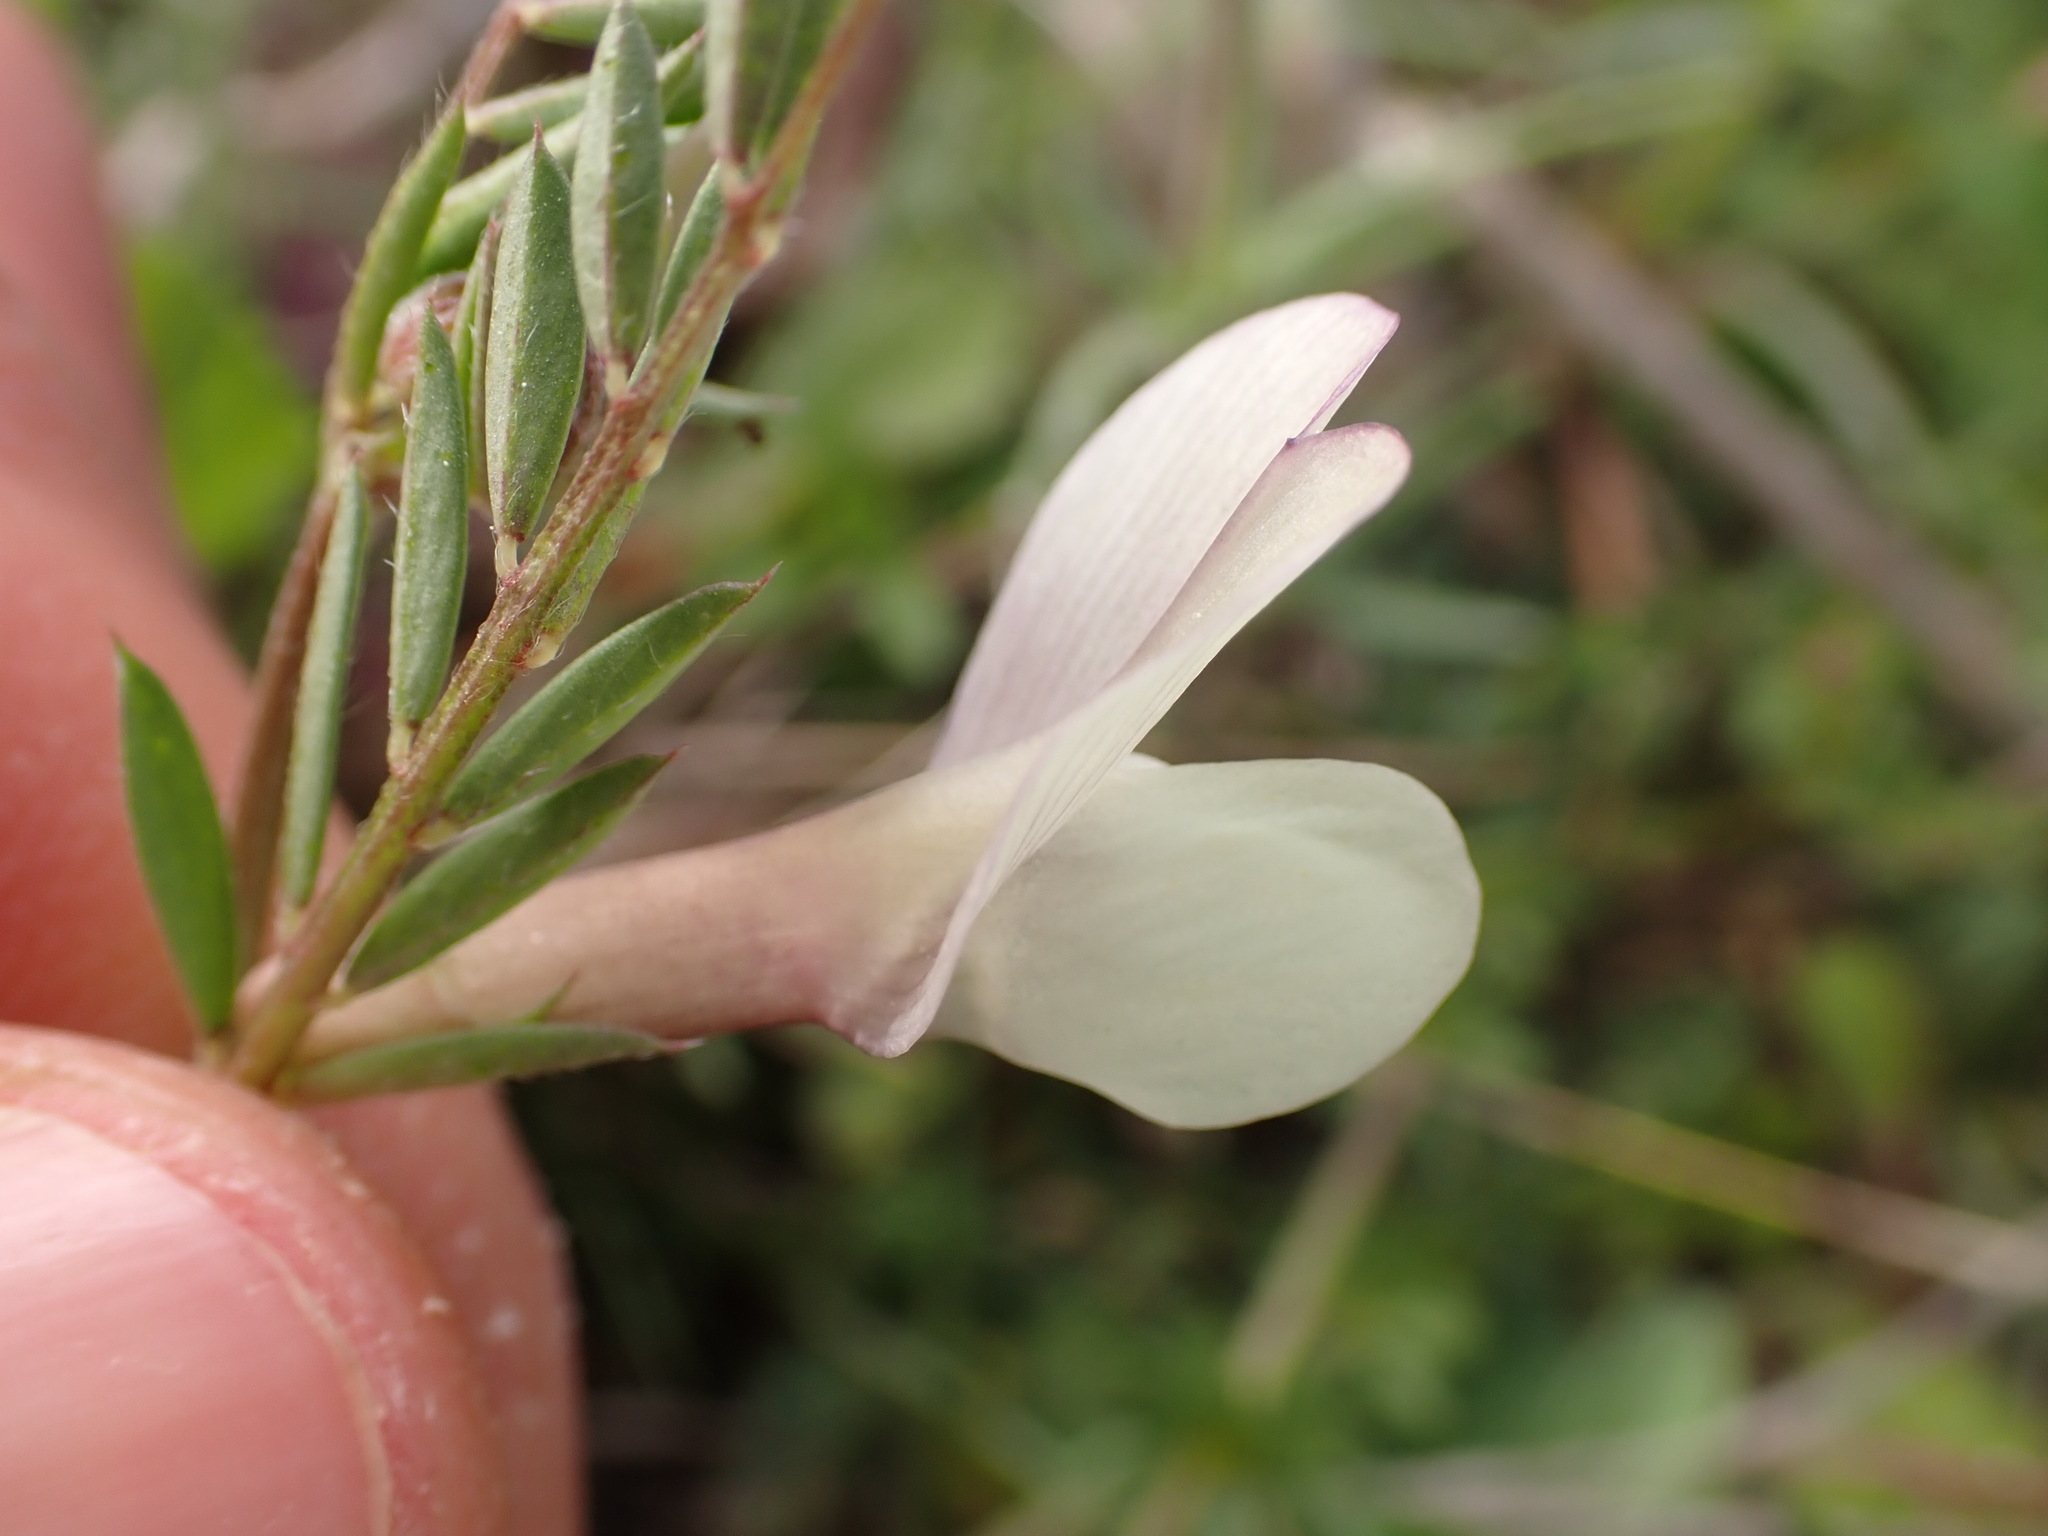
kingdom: Plantae
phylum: Tracheophyta
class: Magnoliopsida
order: Fabales
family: Fabaceae
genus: Vicia
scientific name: Vicia lutea
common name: Smooth yellow vetch
